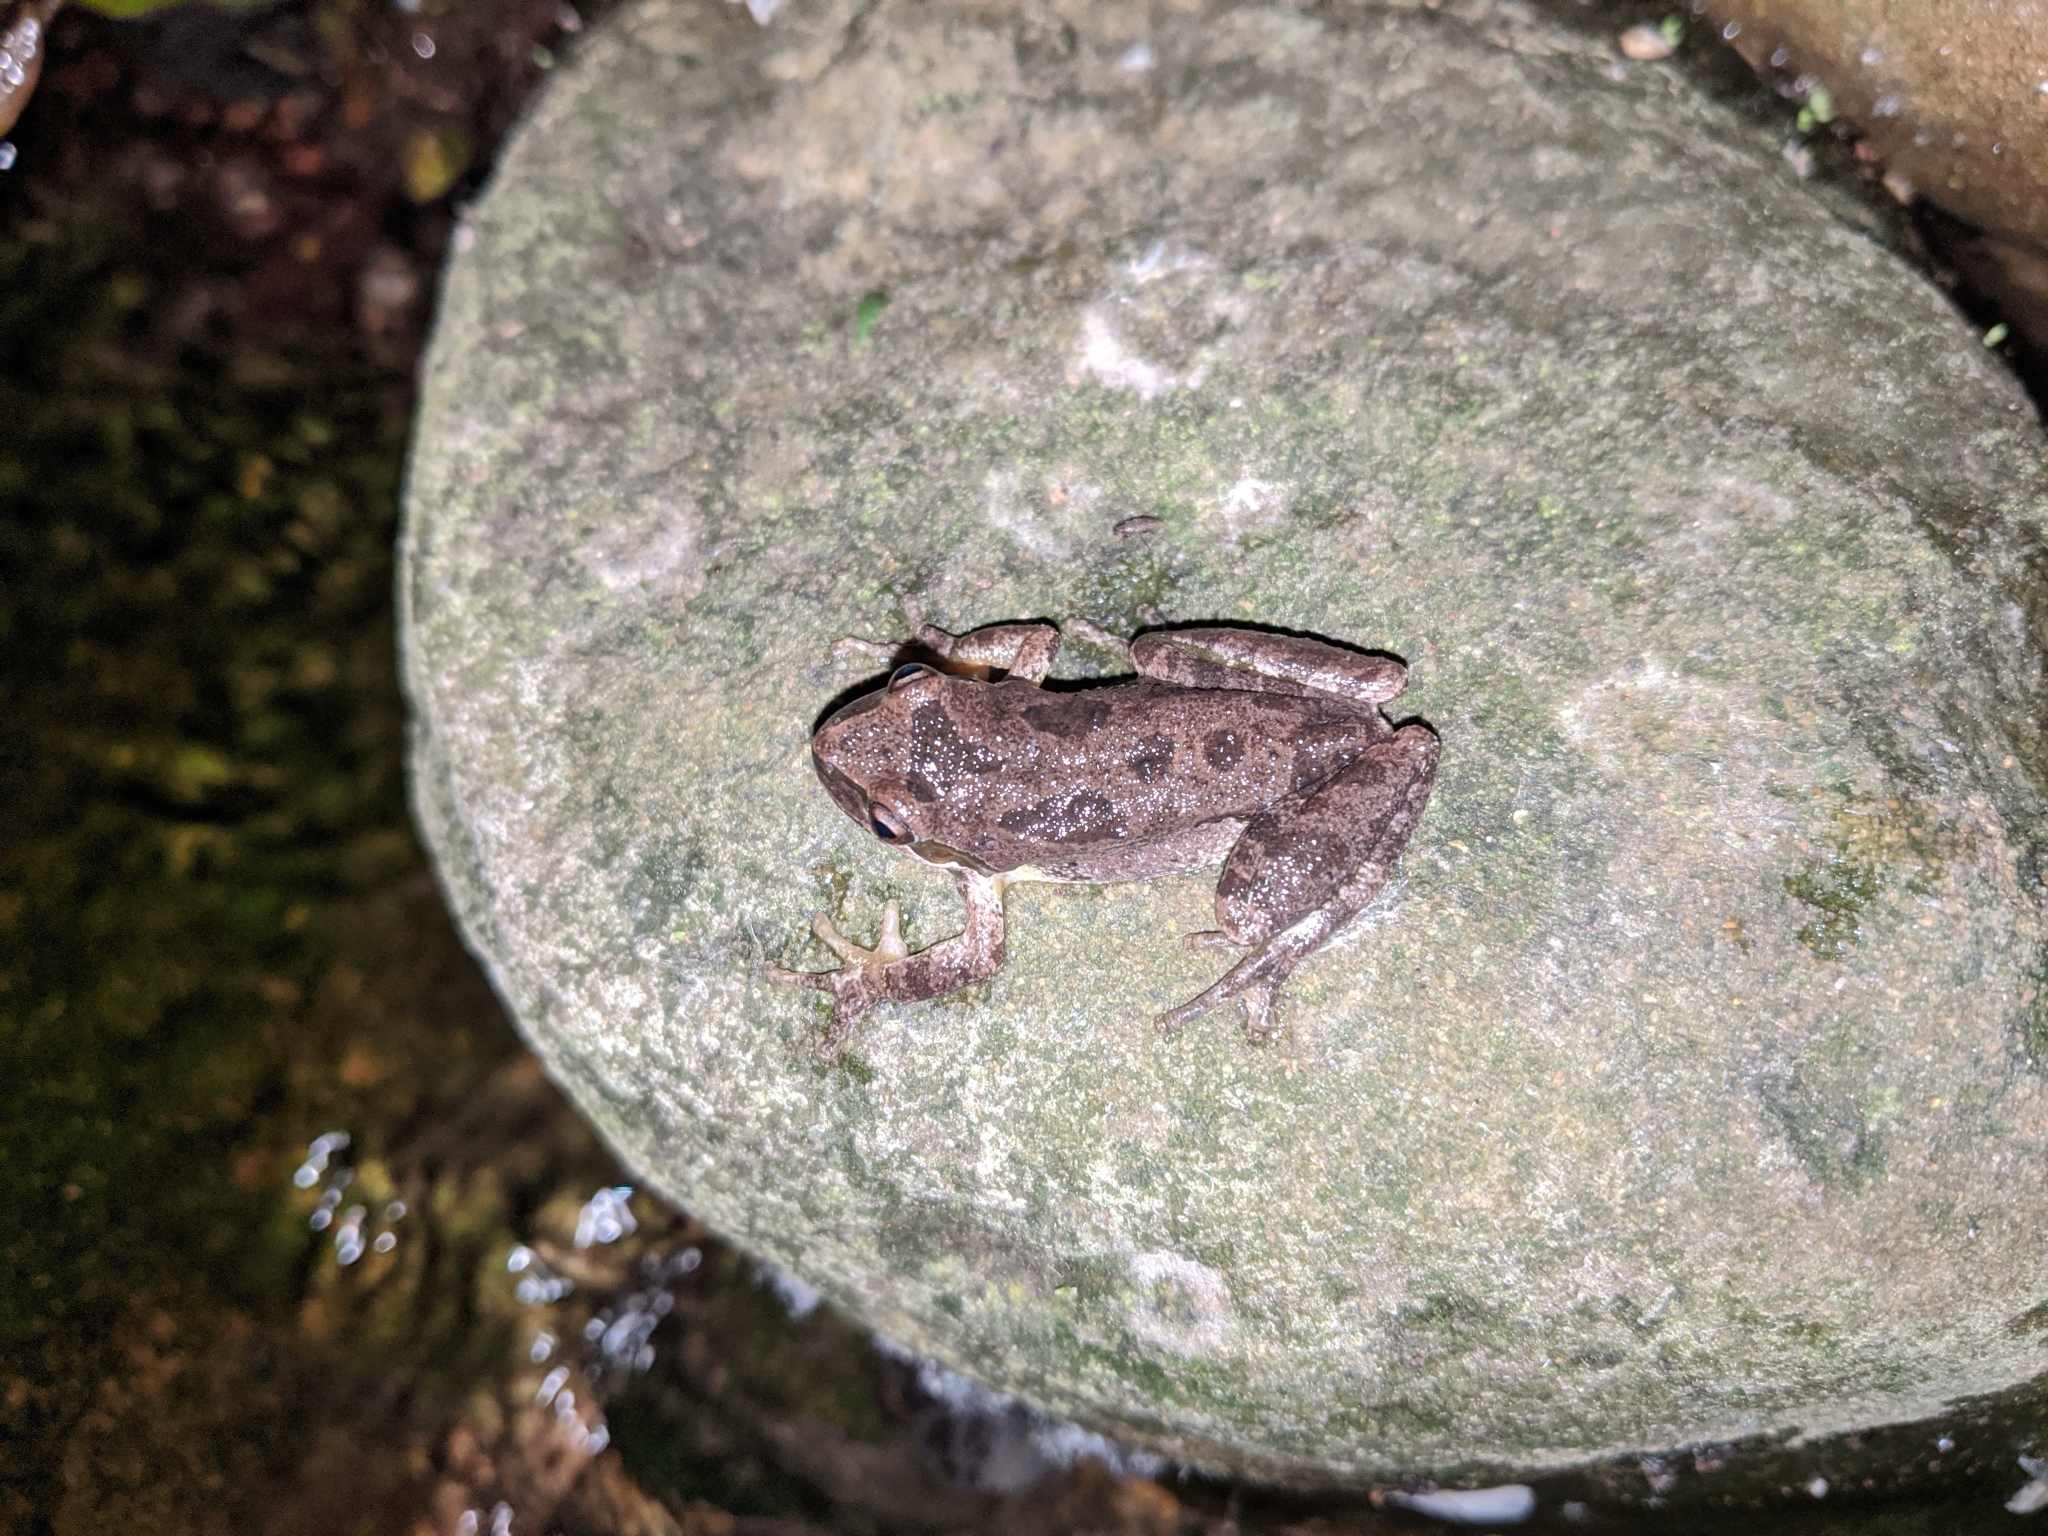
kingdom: Animalia
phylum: Chordata
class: Amphibia
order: Anura
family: Hylidae
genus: Pseudacris
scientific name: Pseudacris regilla
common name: Pacific chorus frog
